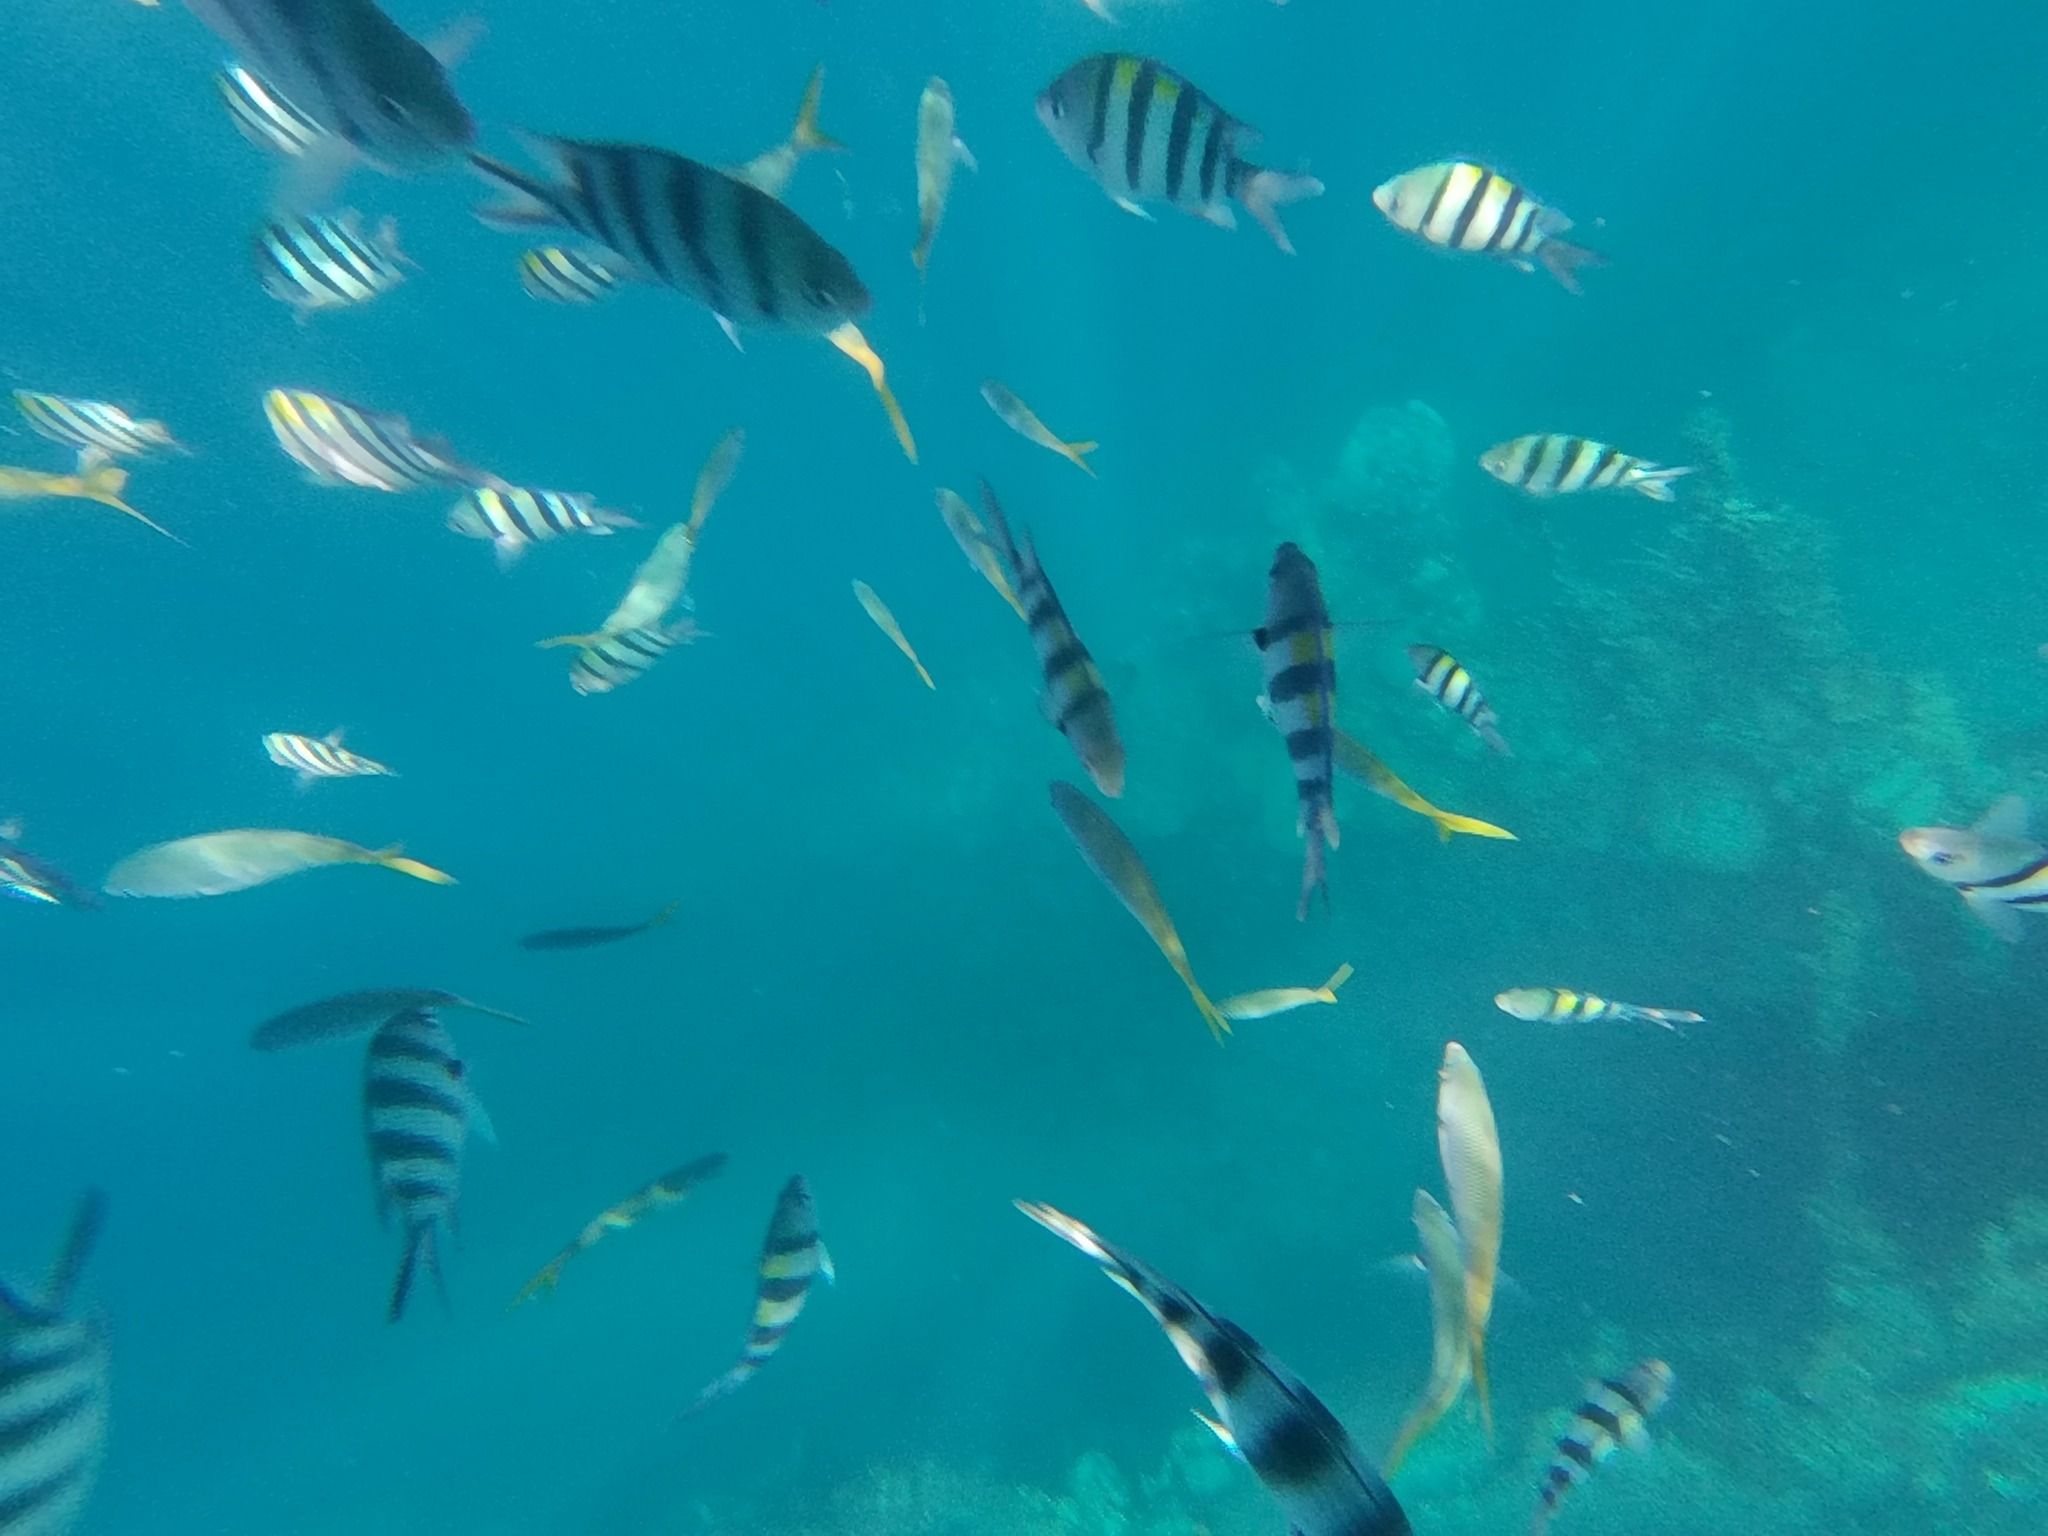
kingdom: Animalia
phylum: Chordata
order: Perciformes
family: Pomacentridae
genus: Abudefduf
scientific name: Abudefduf vaigiensis
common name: Indo-pacific sergeant
